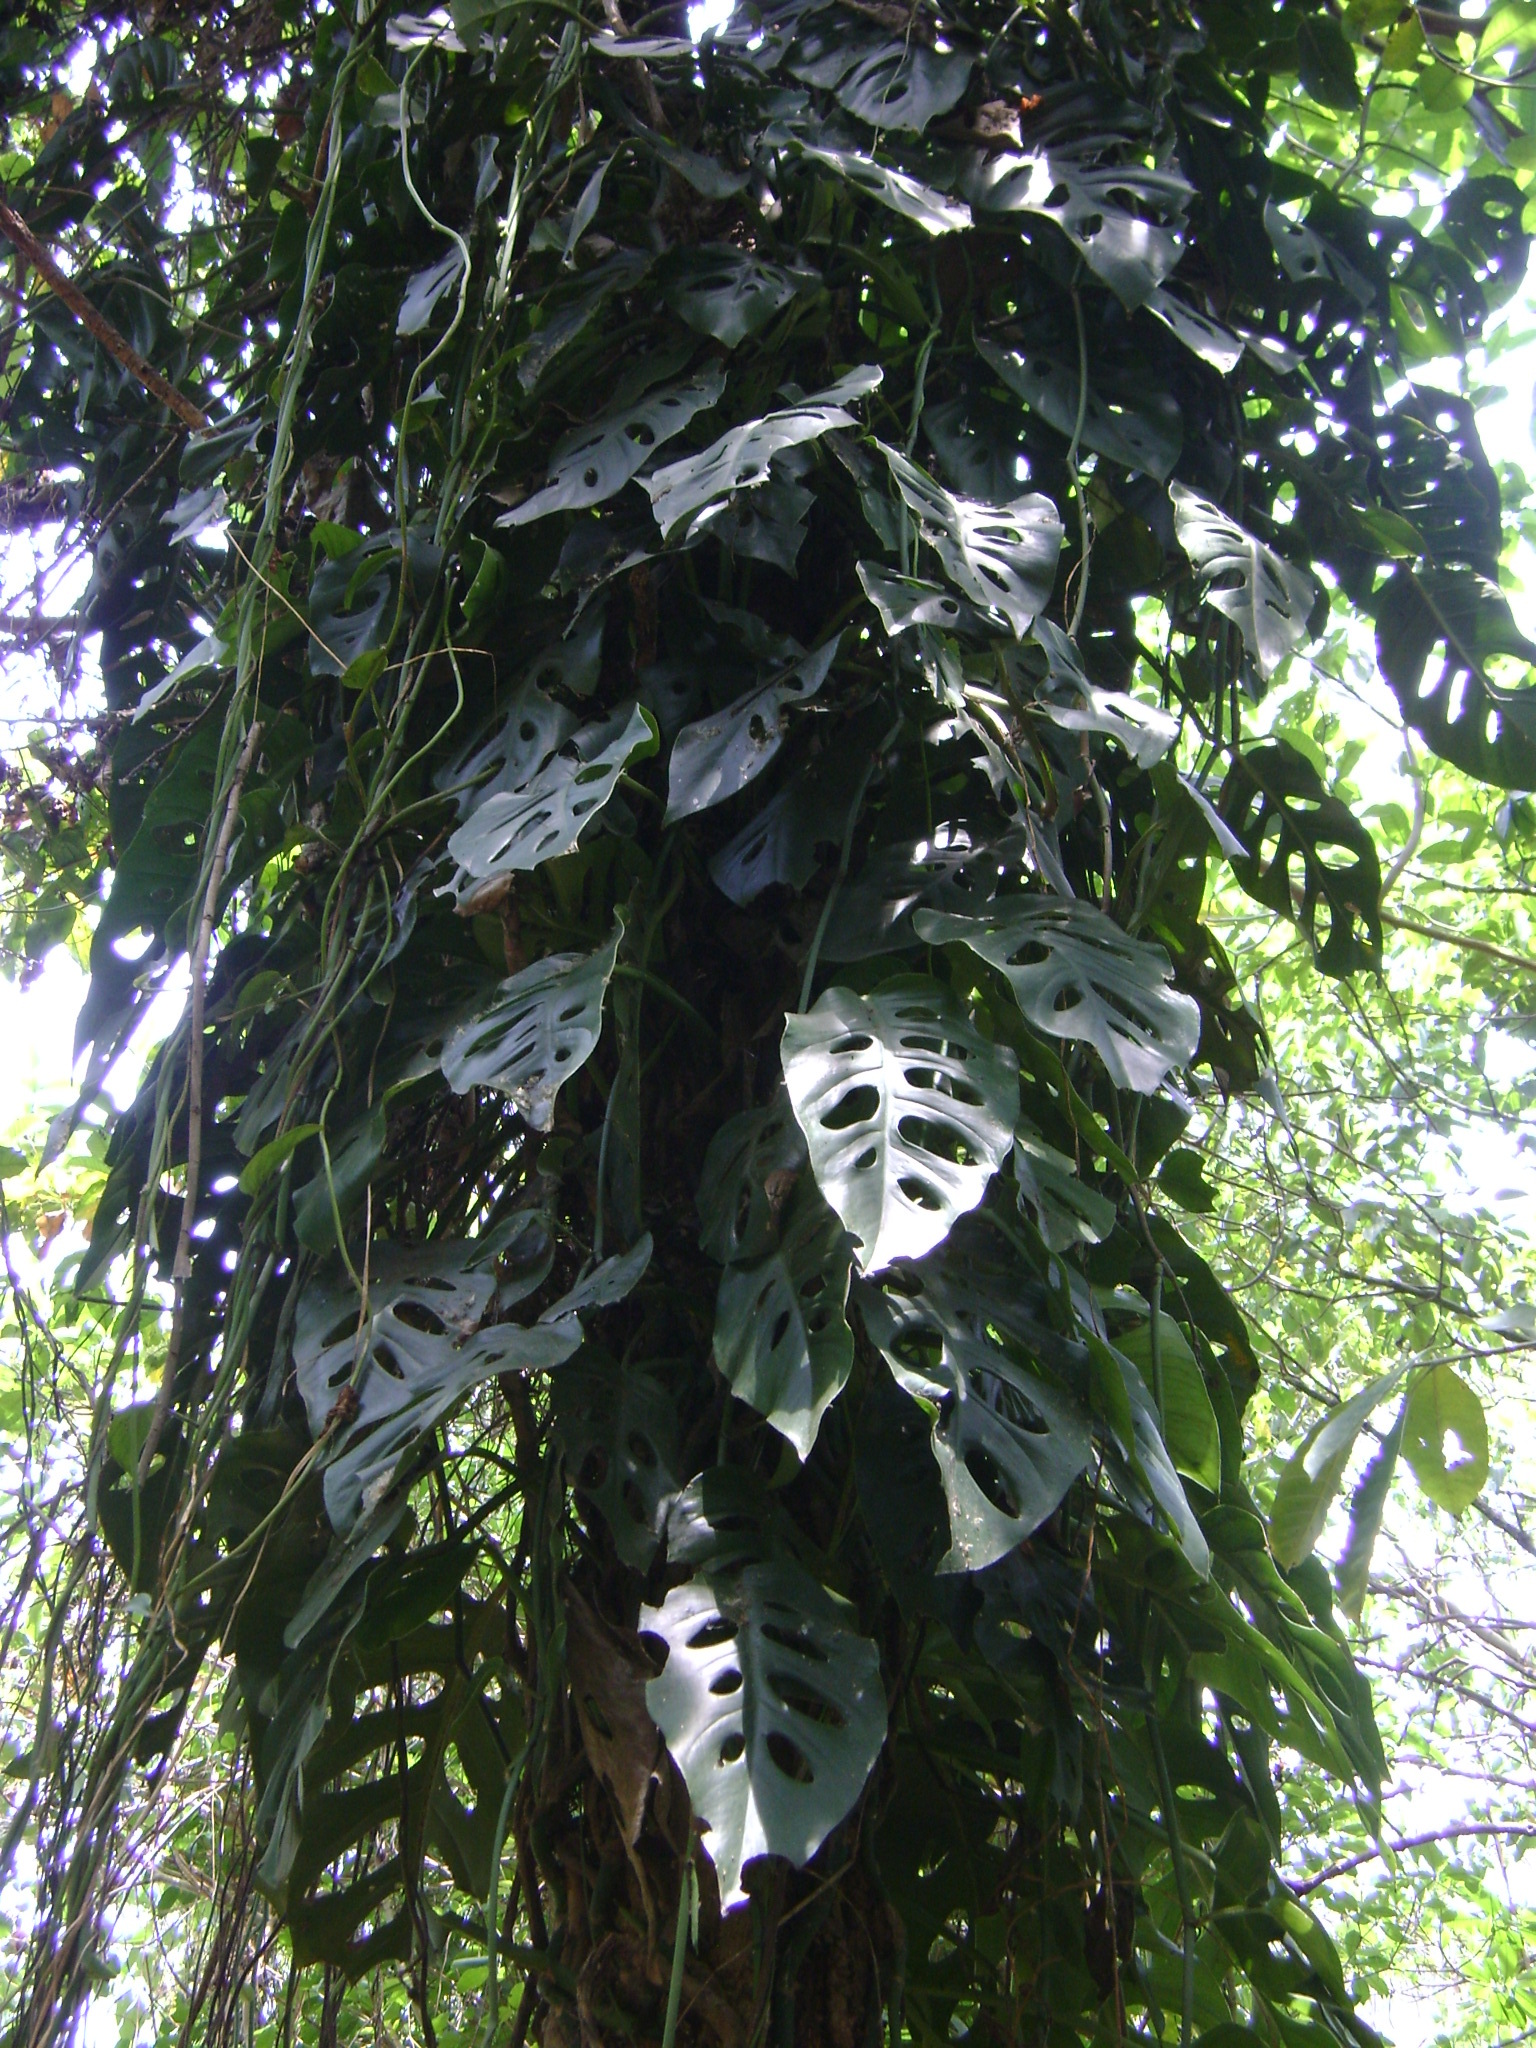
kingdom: Plantae
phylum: Tracheophyta
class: Liliopsida
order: Alismatales
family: Araceae
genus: Monstera
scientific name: Monstera acuminata
